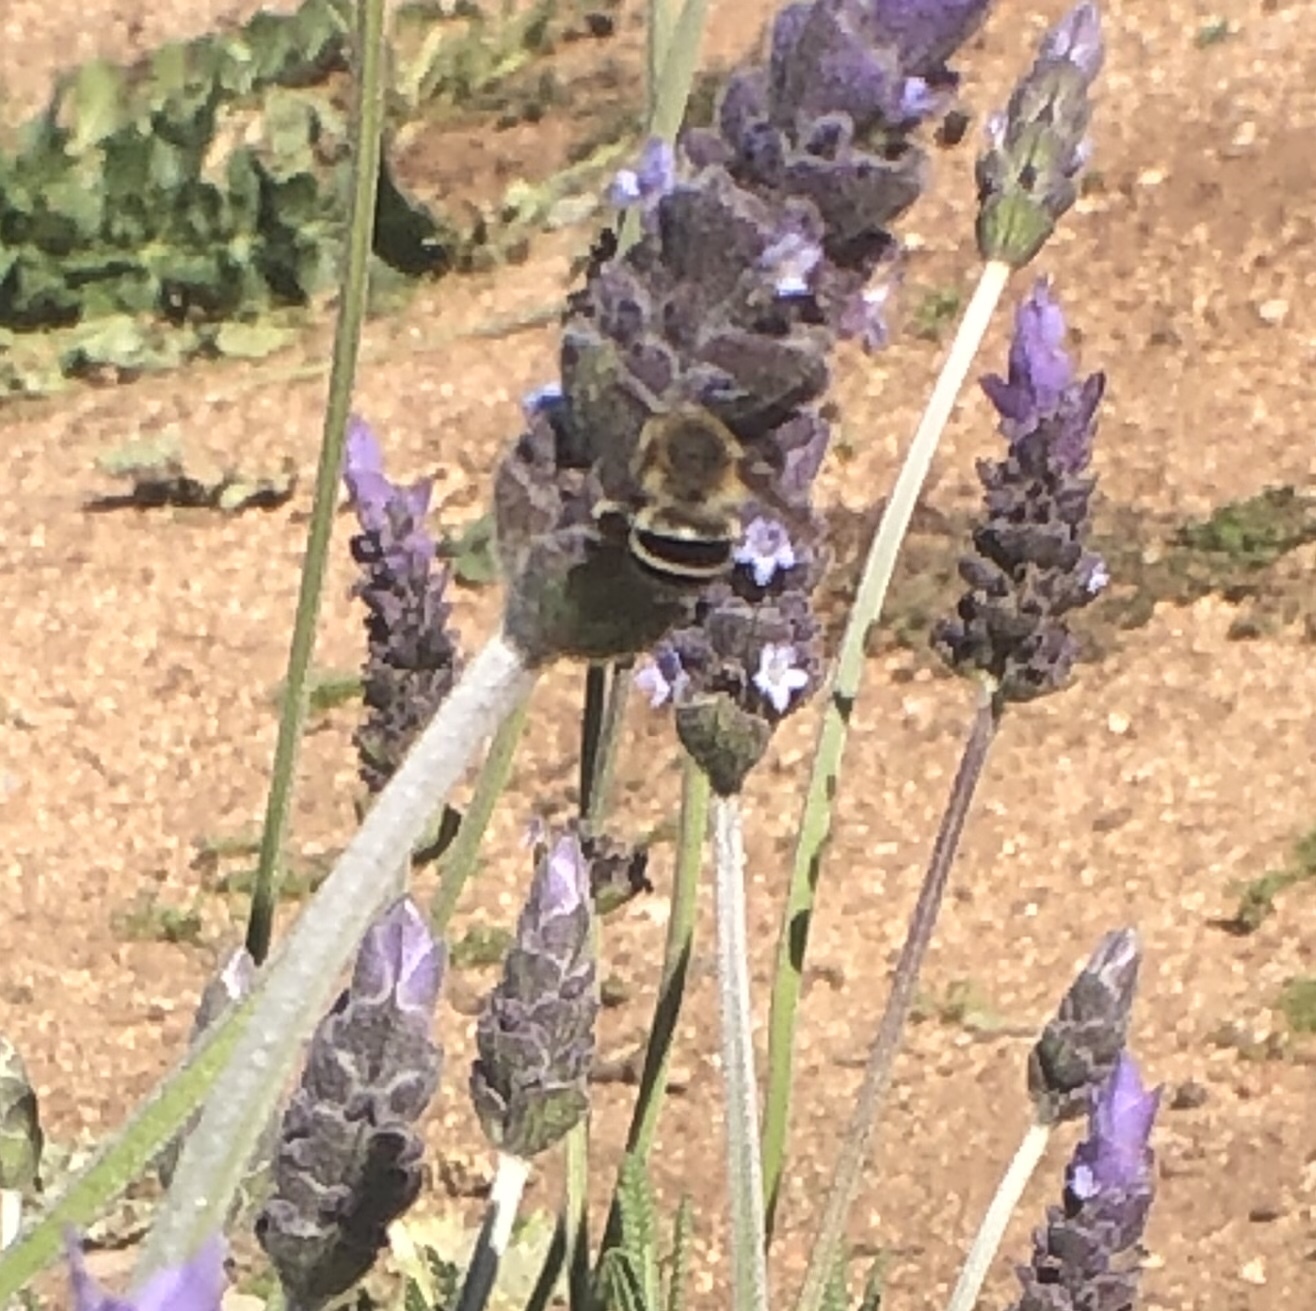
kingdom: Animalia
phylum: Arthropoda
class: Insecta
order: Hymenoptera
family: Apidae
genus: Anthophora
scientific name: Anthophora californica
